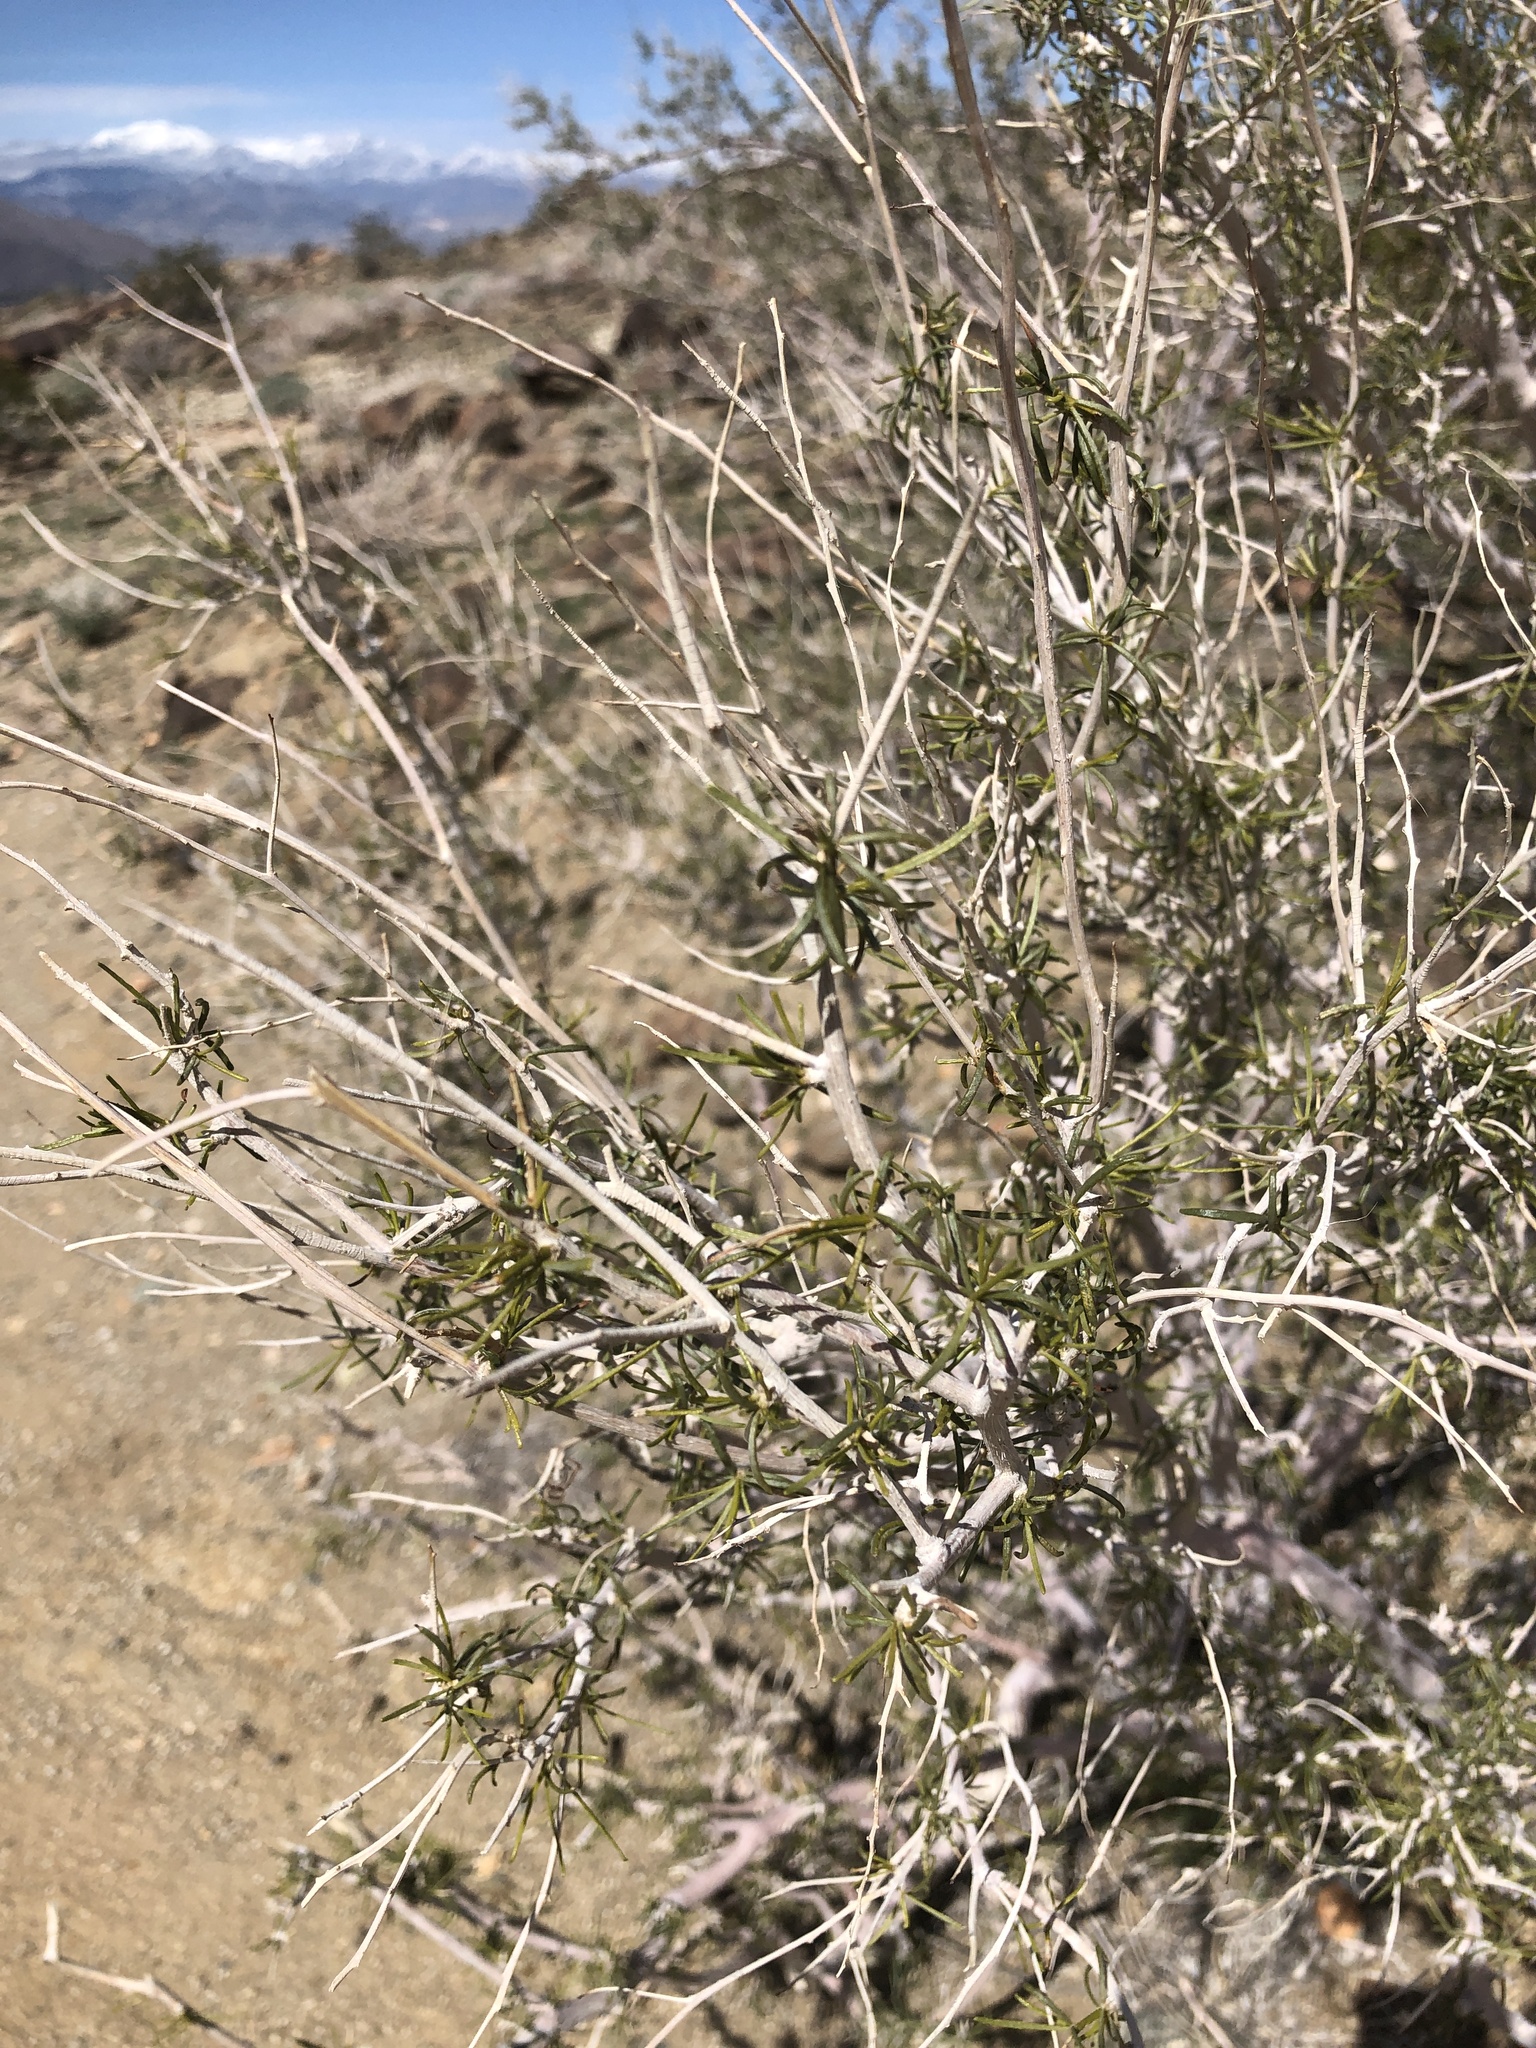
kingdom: Plantae
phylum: Tracheophyta
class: Magnoliopsida
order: Fabales
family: Fabaceae
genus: Psorothamnus
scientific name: Psorothamnus schottii
